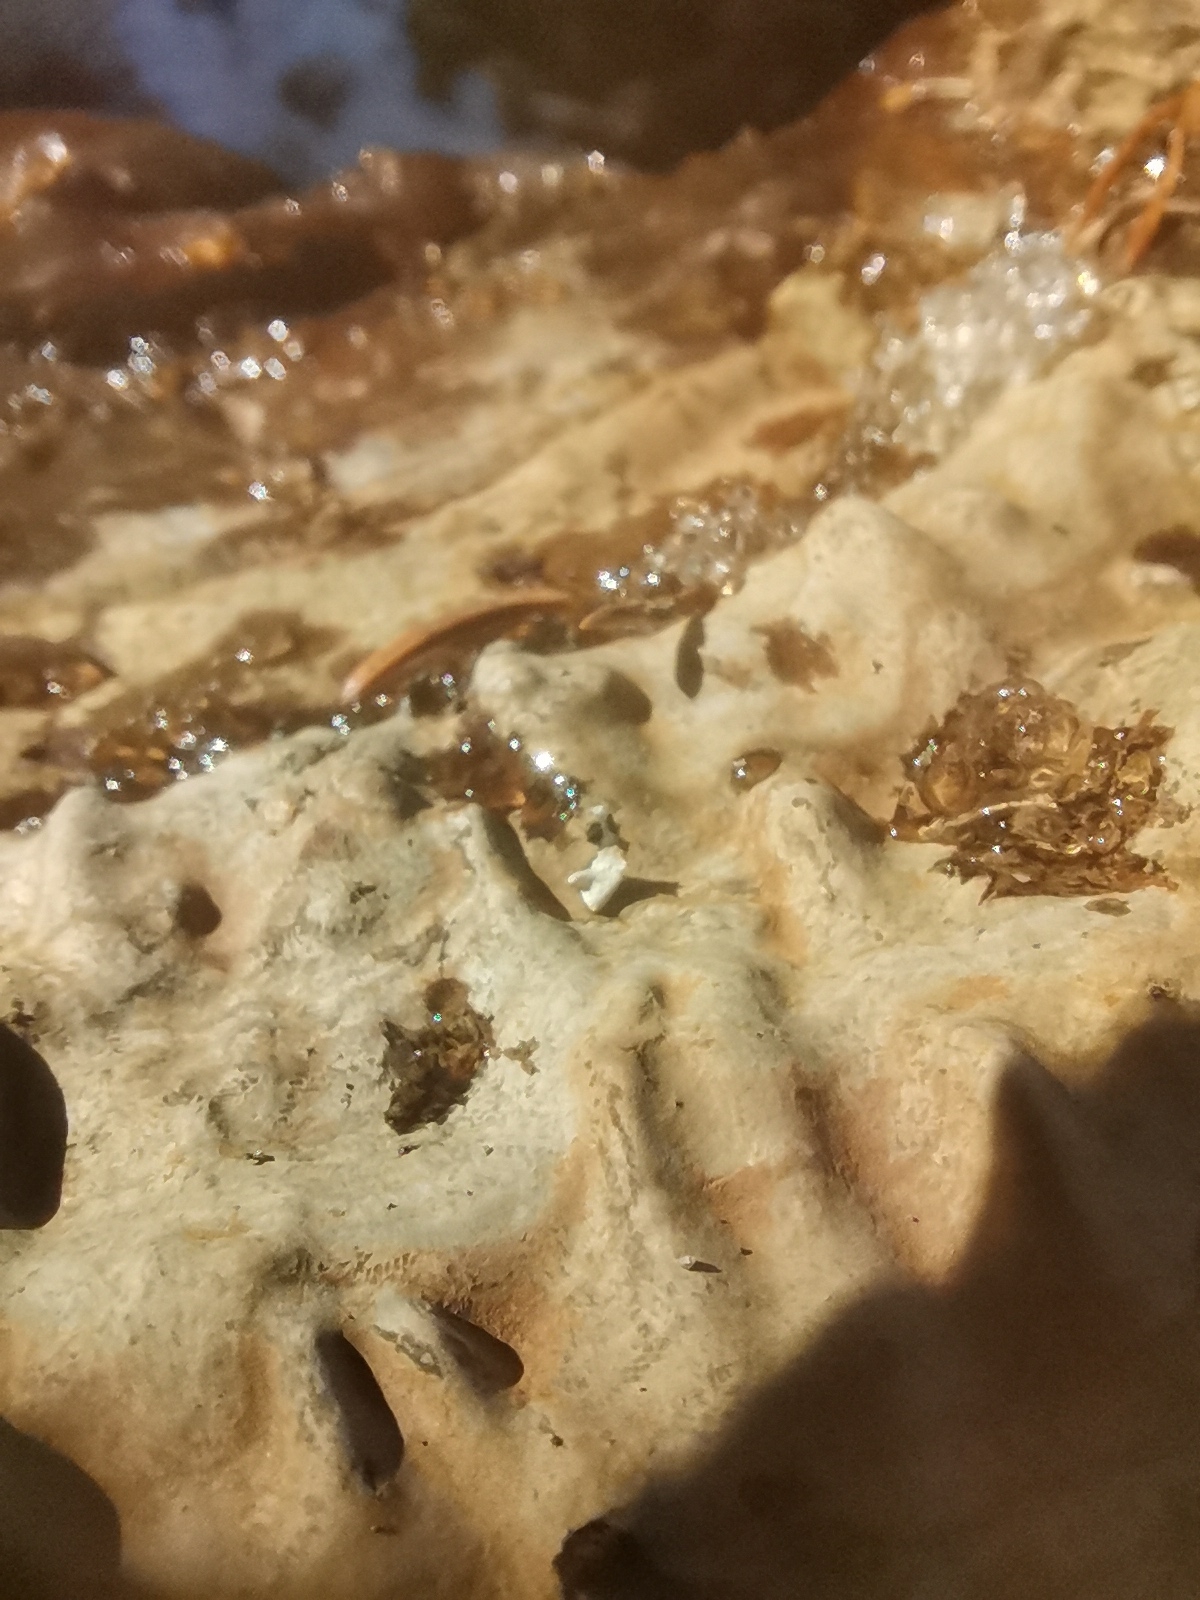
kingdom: Fungi
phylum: Basidiomycota
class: Agaricomycetes
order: Polyporales
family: Polyporaceae
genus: Ganoderma
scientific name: Ganoderma applanatum
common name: Artist's bracket
